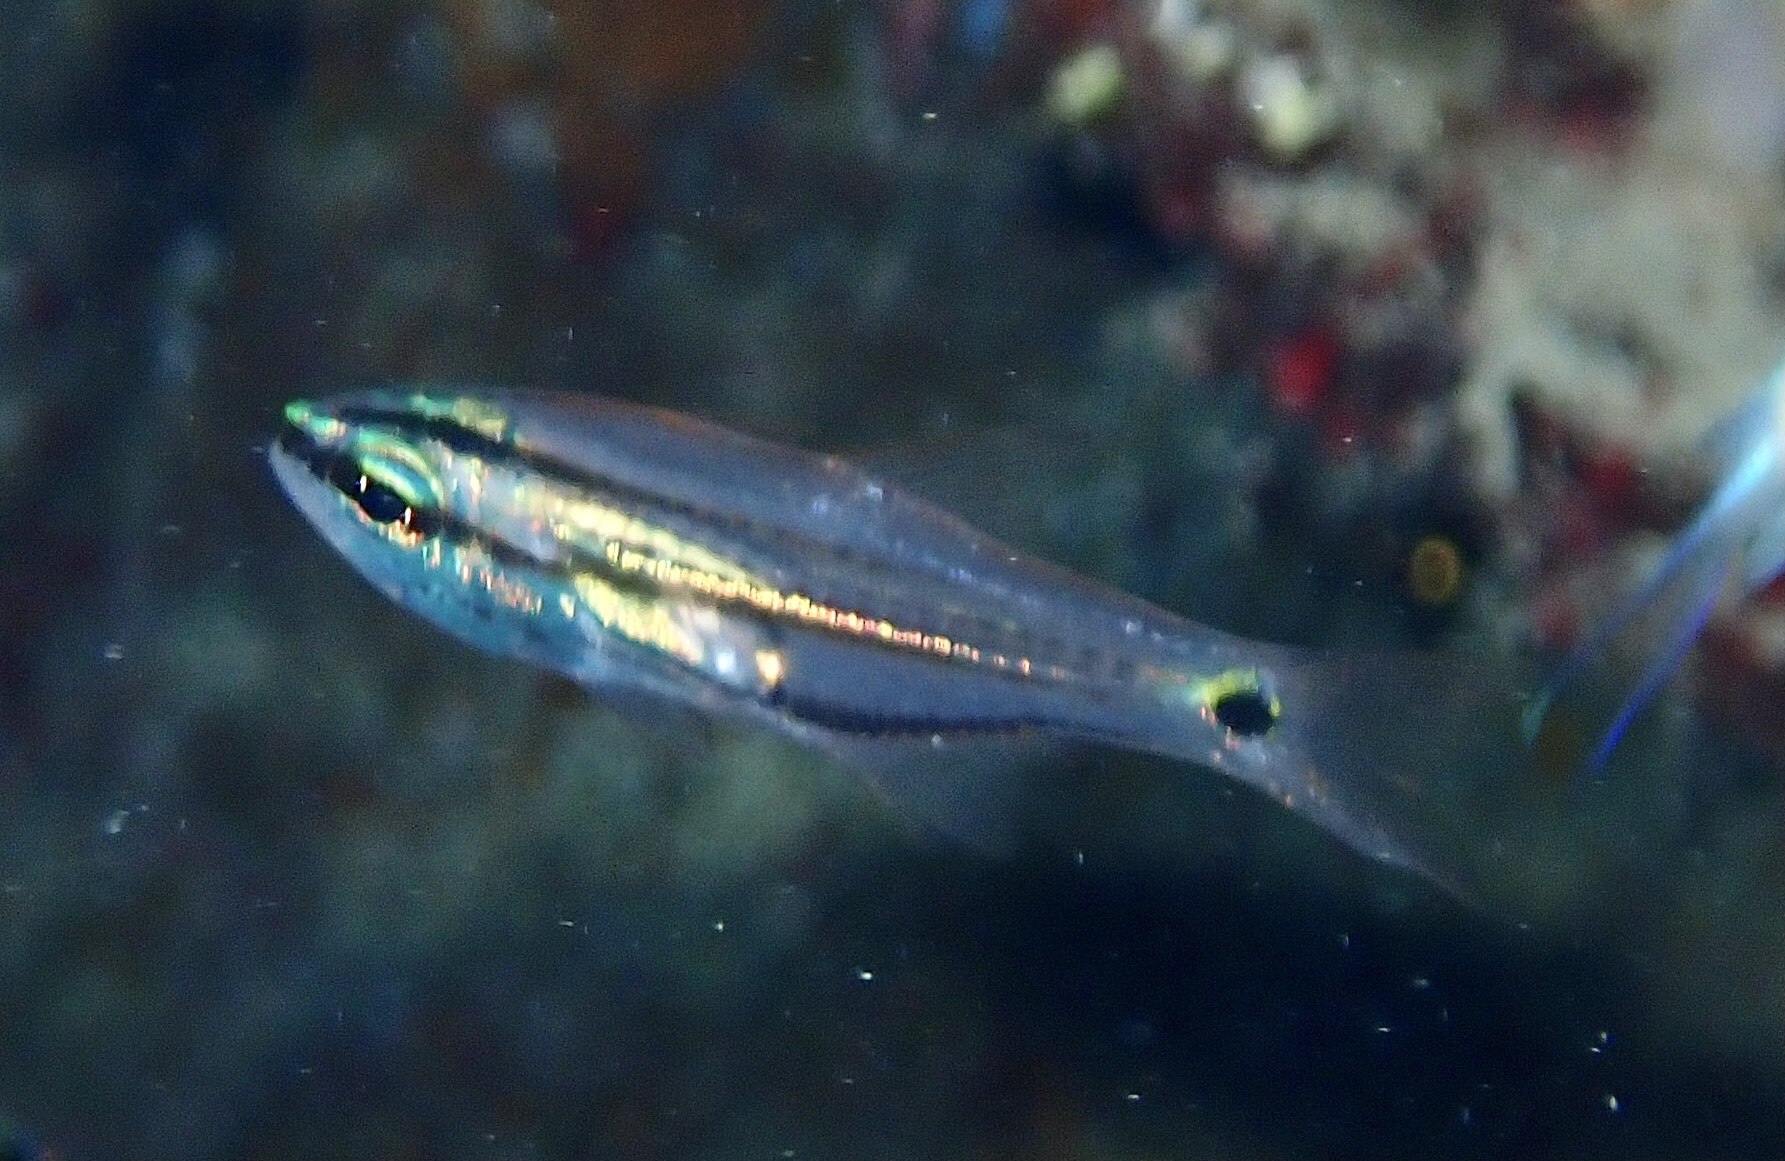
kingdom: Animalia
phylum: Chordata
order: Perciformes
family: Apogonidae
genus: Taeniamia
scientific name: Taeniamia bilineata
